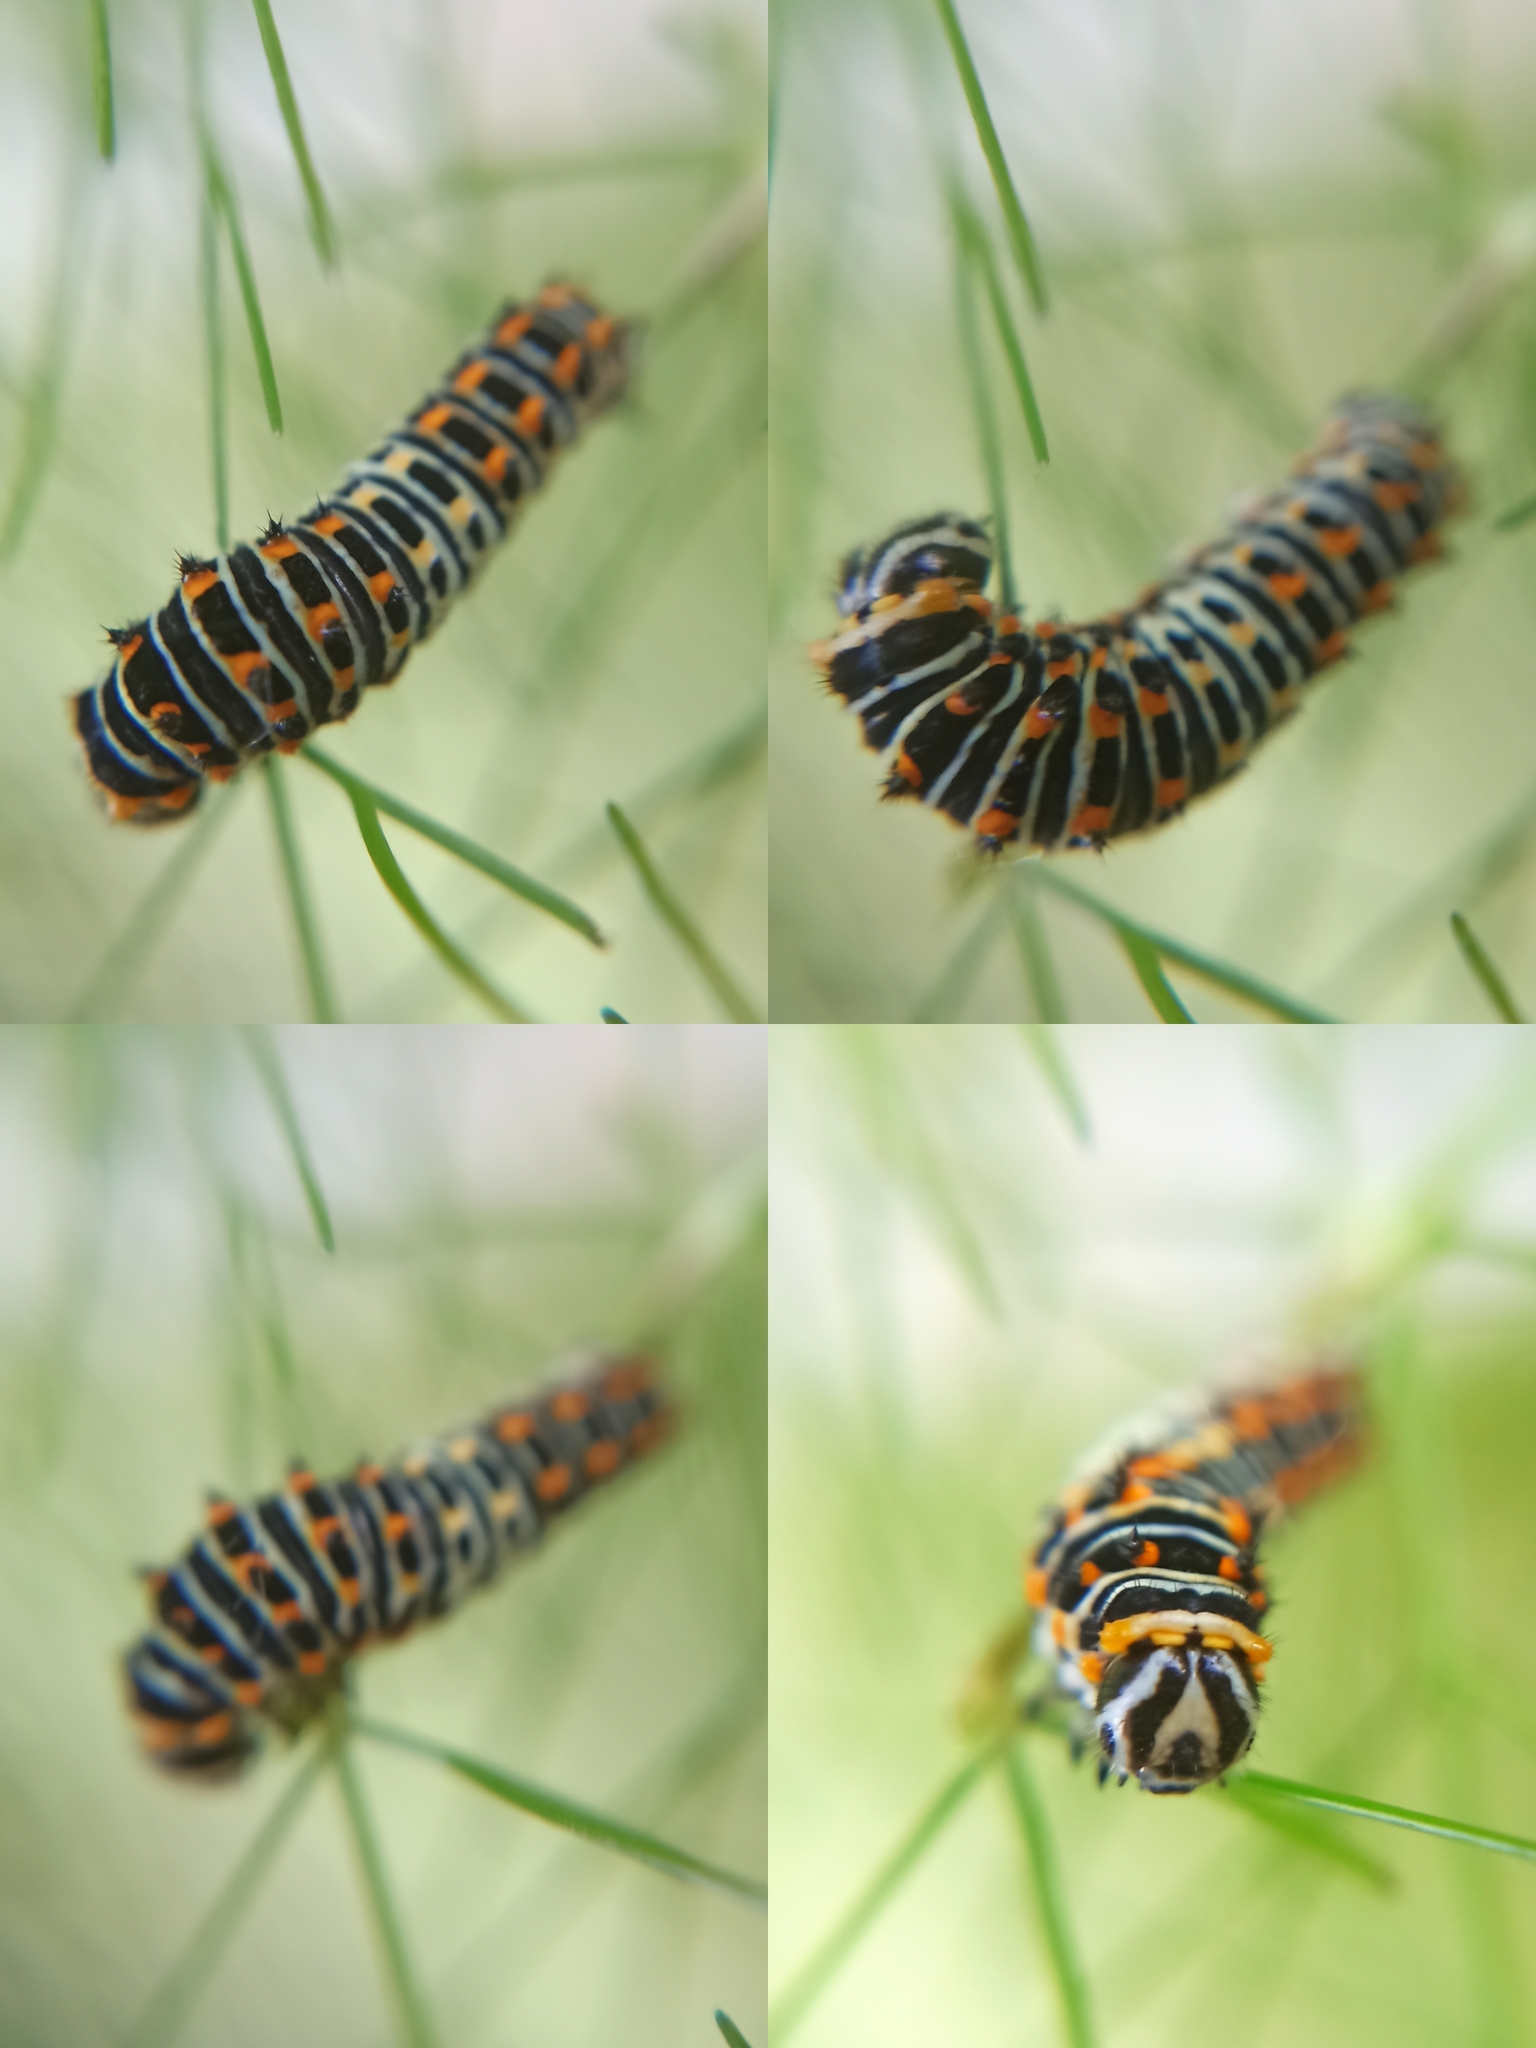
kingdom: Animalia
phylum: Arthropoda
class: Insecta
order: Lepidoptera
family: Papilionidae
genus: Papilio
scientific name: Papilio machaon
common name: Swallowtail
